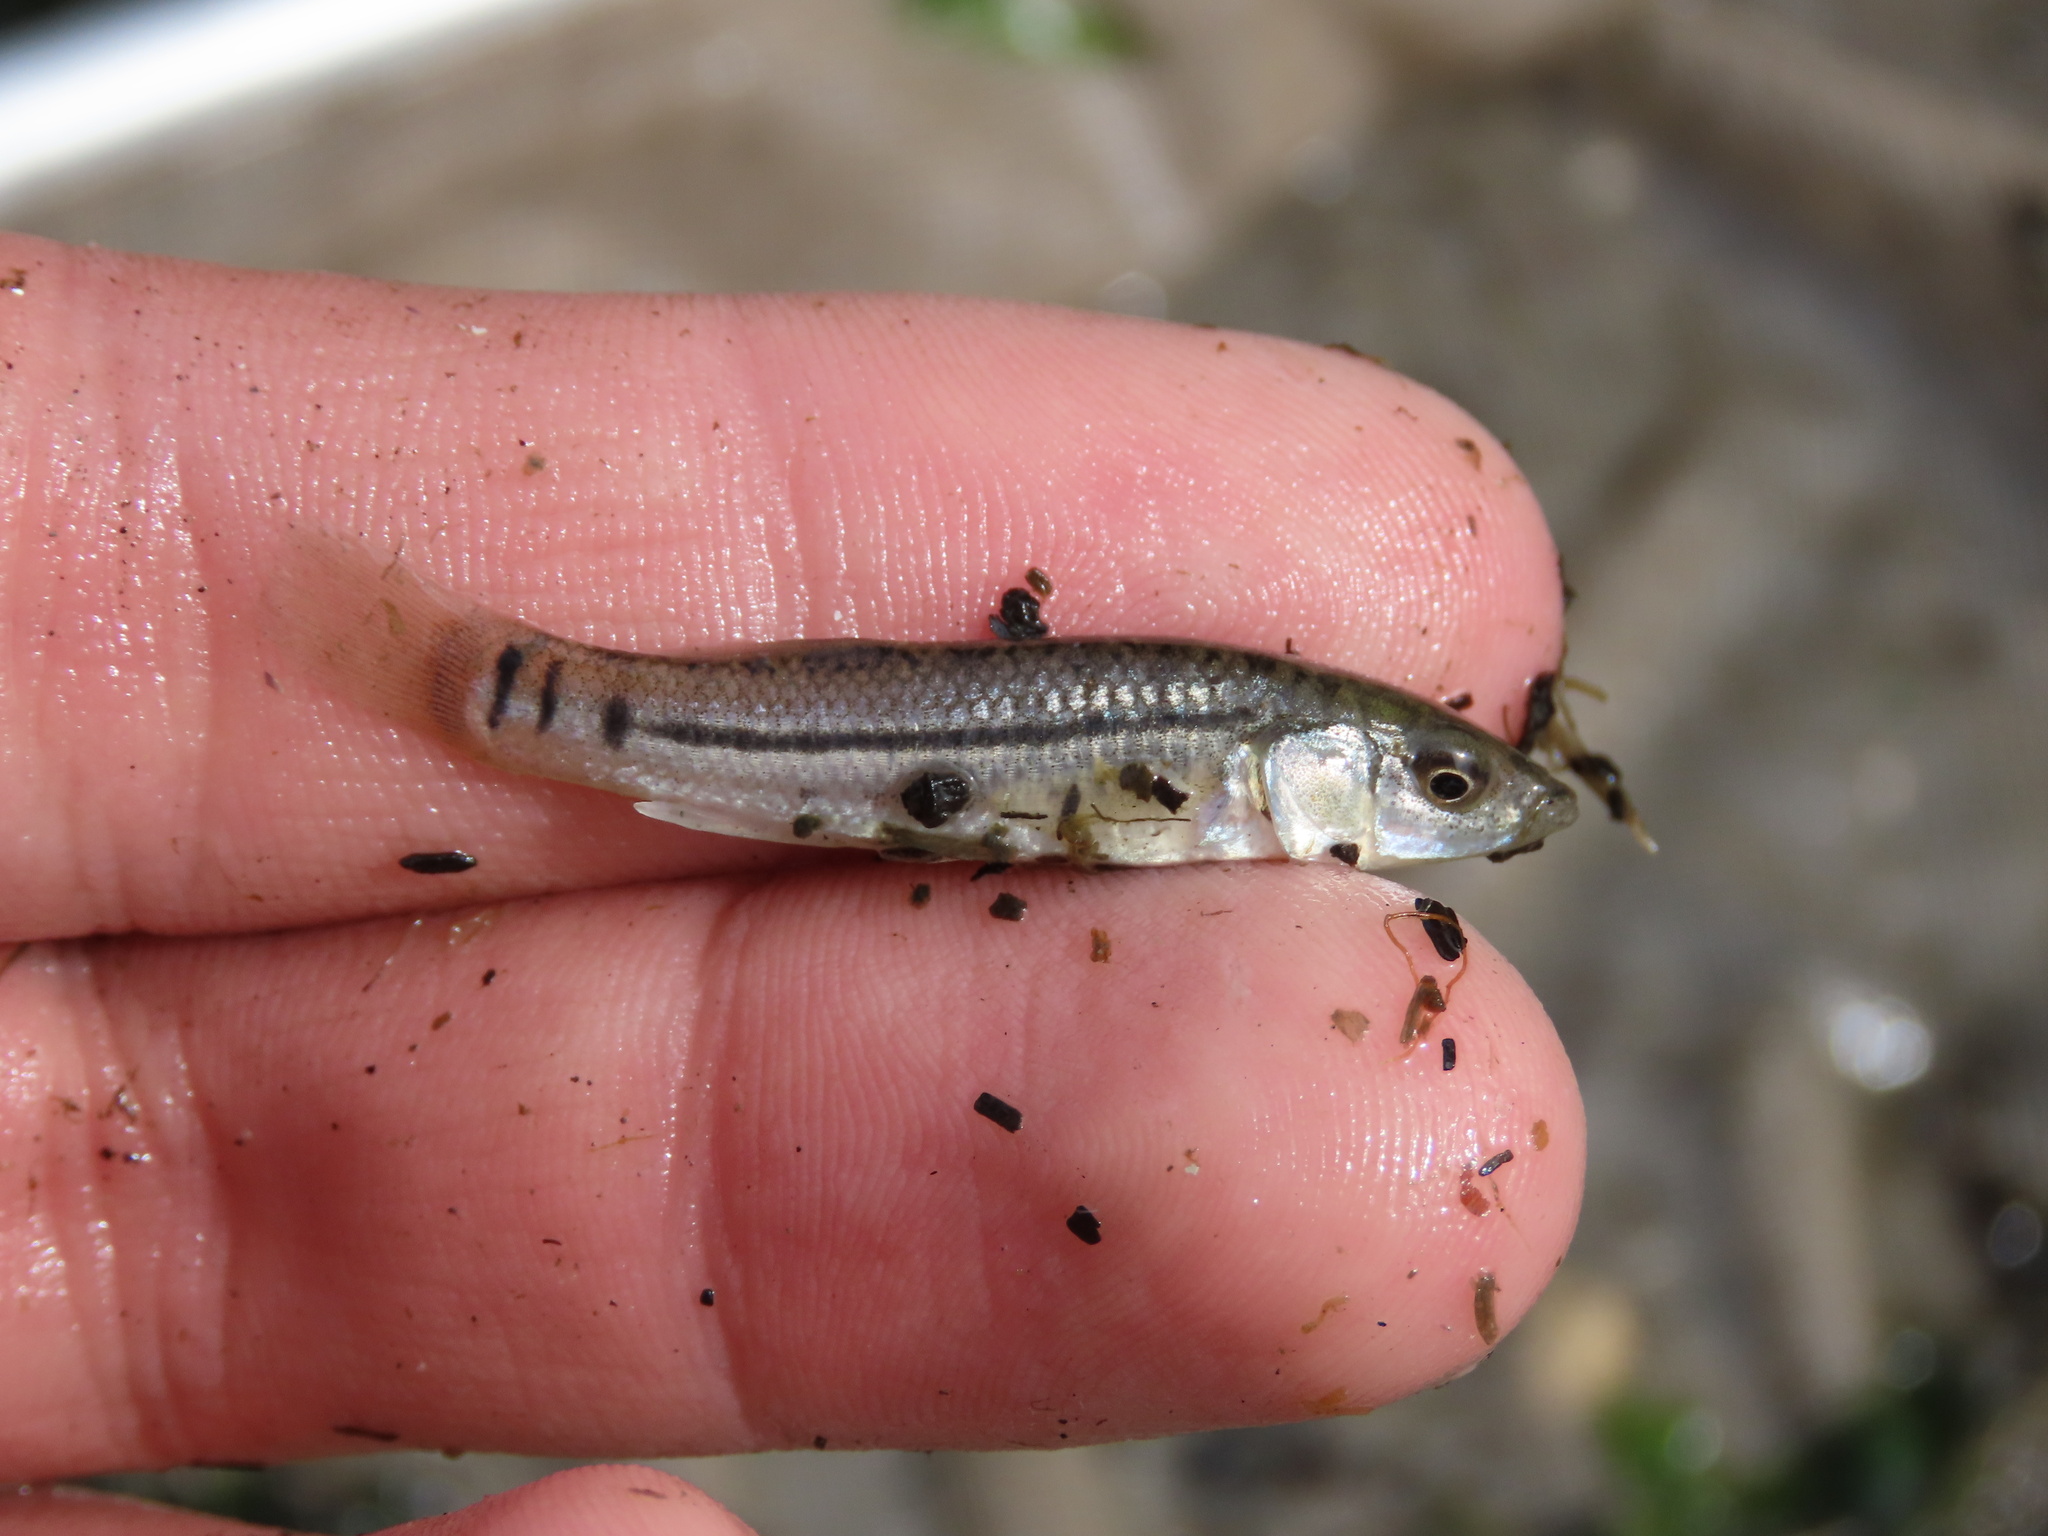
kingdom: Animalia
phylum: Chordata
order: Cyprinodontiformes
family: Fundulidae
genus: Fundulus
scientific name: Fundulus majalis
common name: Striped killifish
